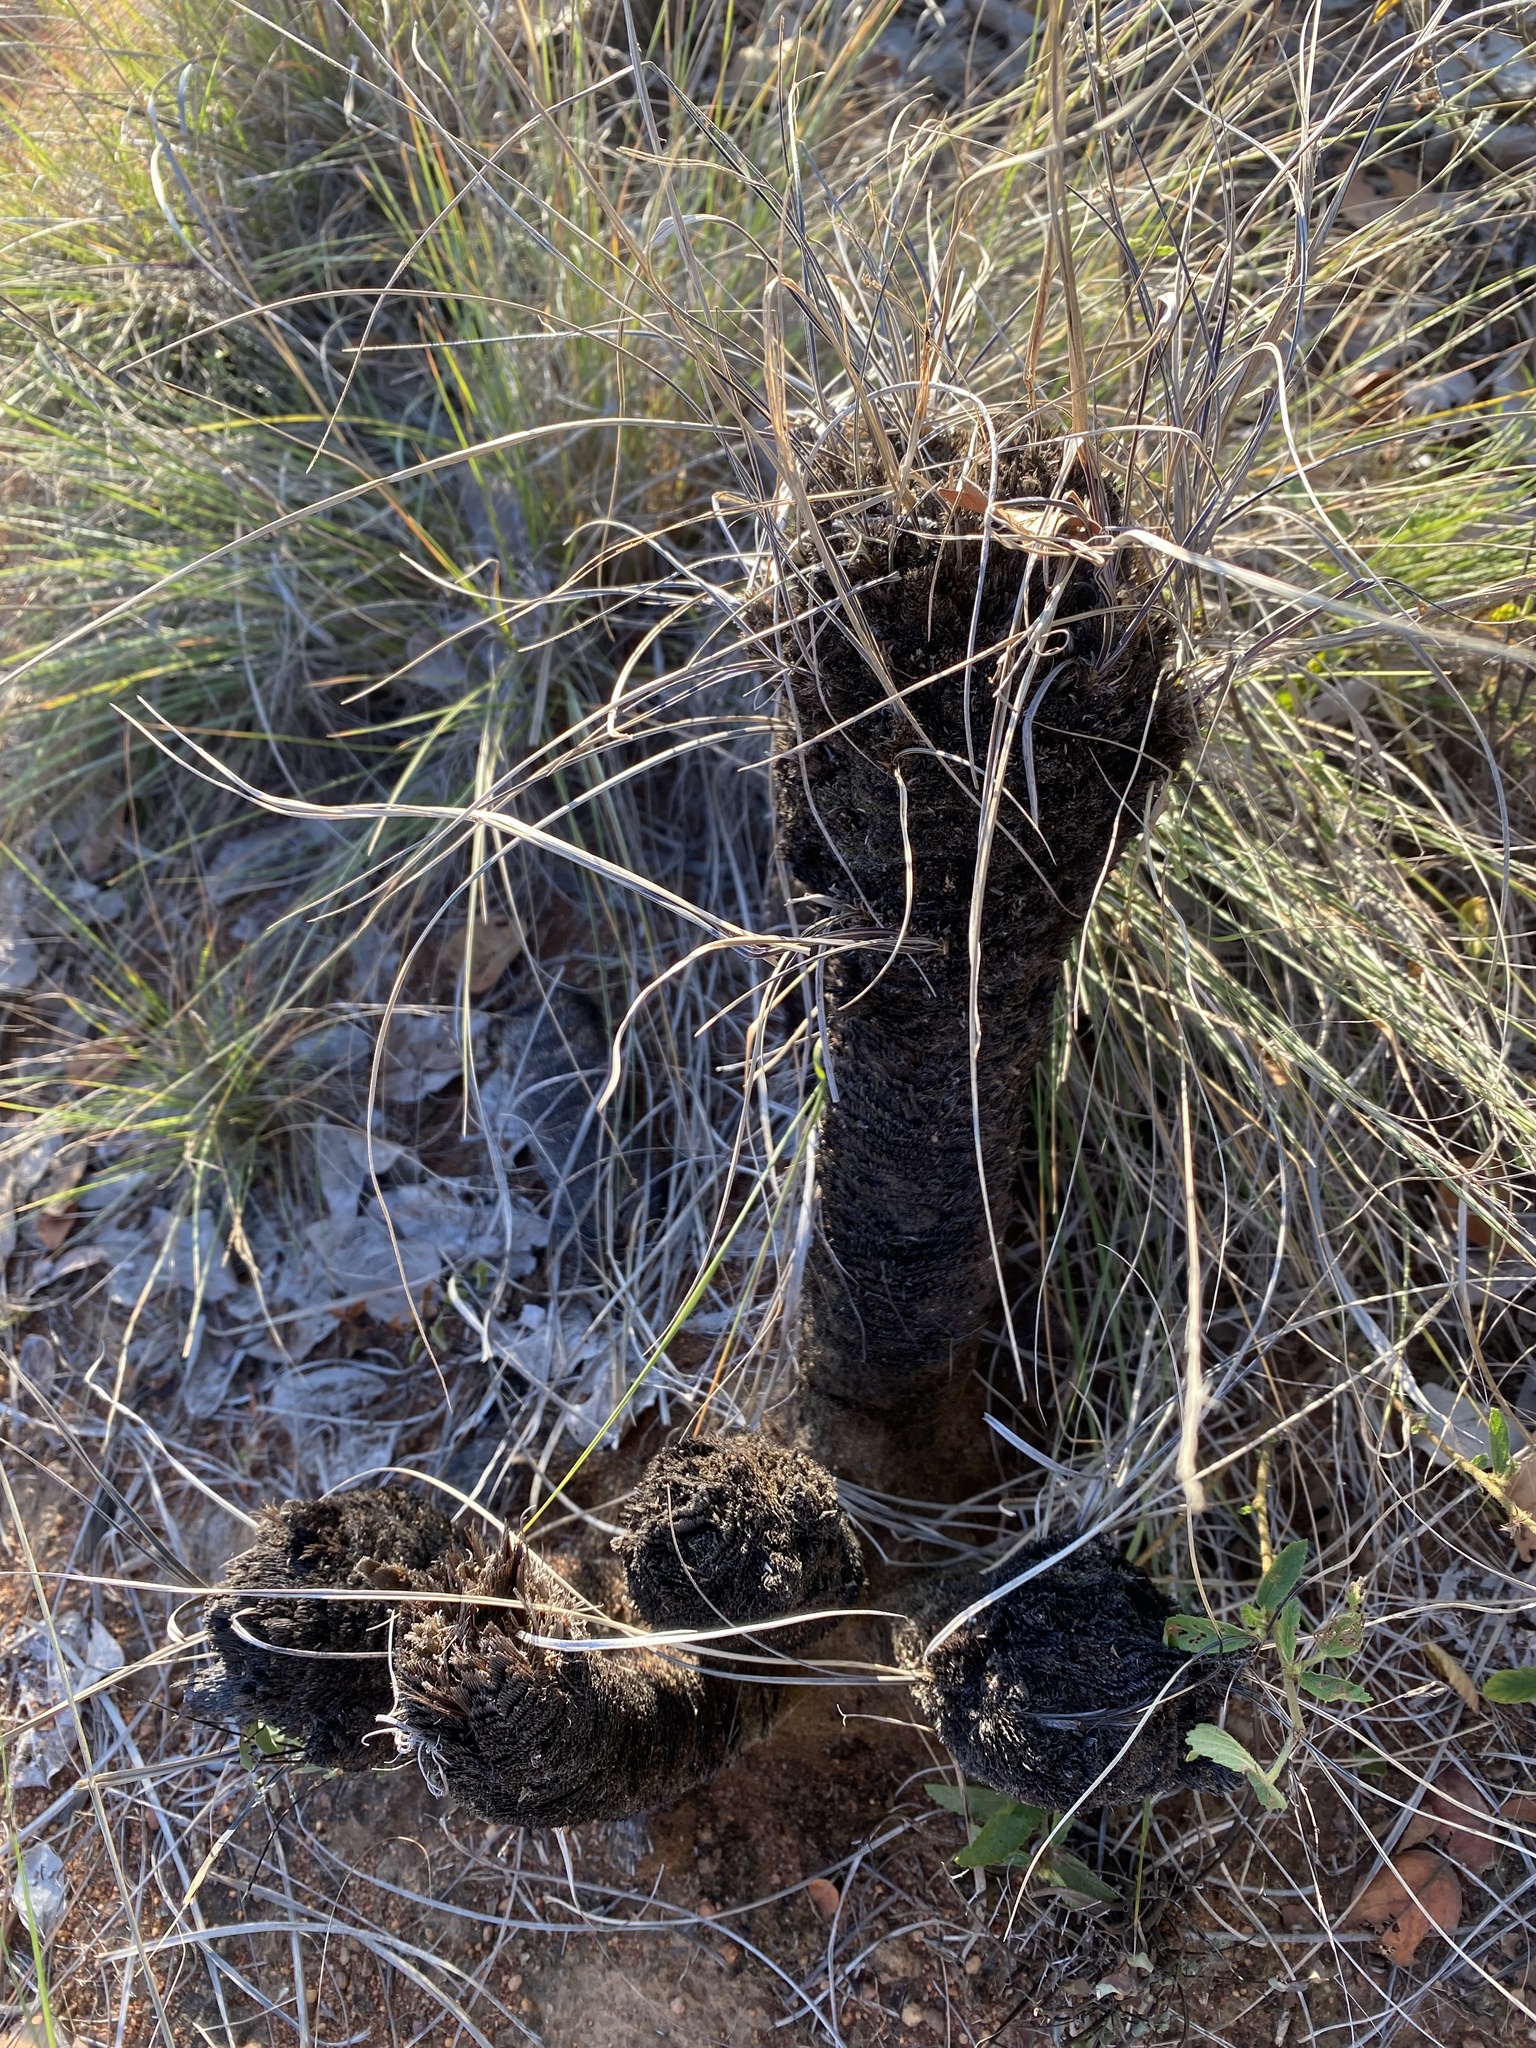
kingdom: Plantae
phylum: Tracheophyta
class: Liliopsida
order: Pandanales
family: Velloziaceae
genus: Xerophyta
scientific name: Xerophyta retinervis
